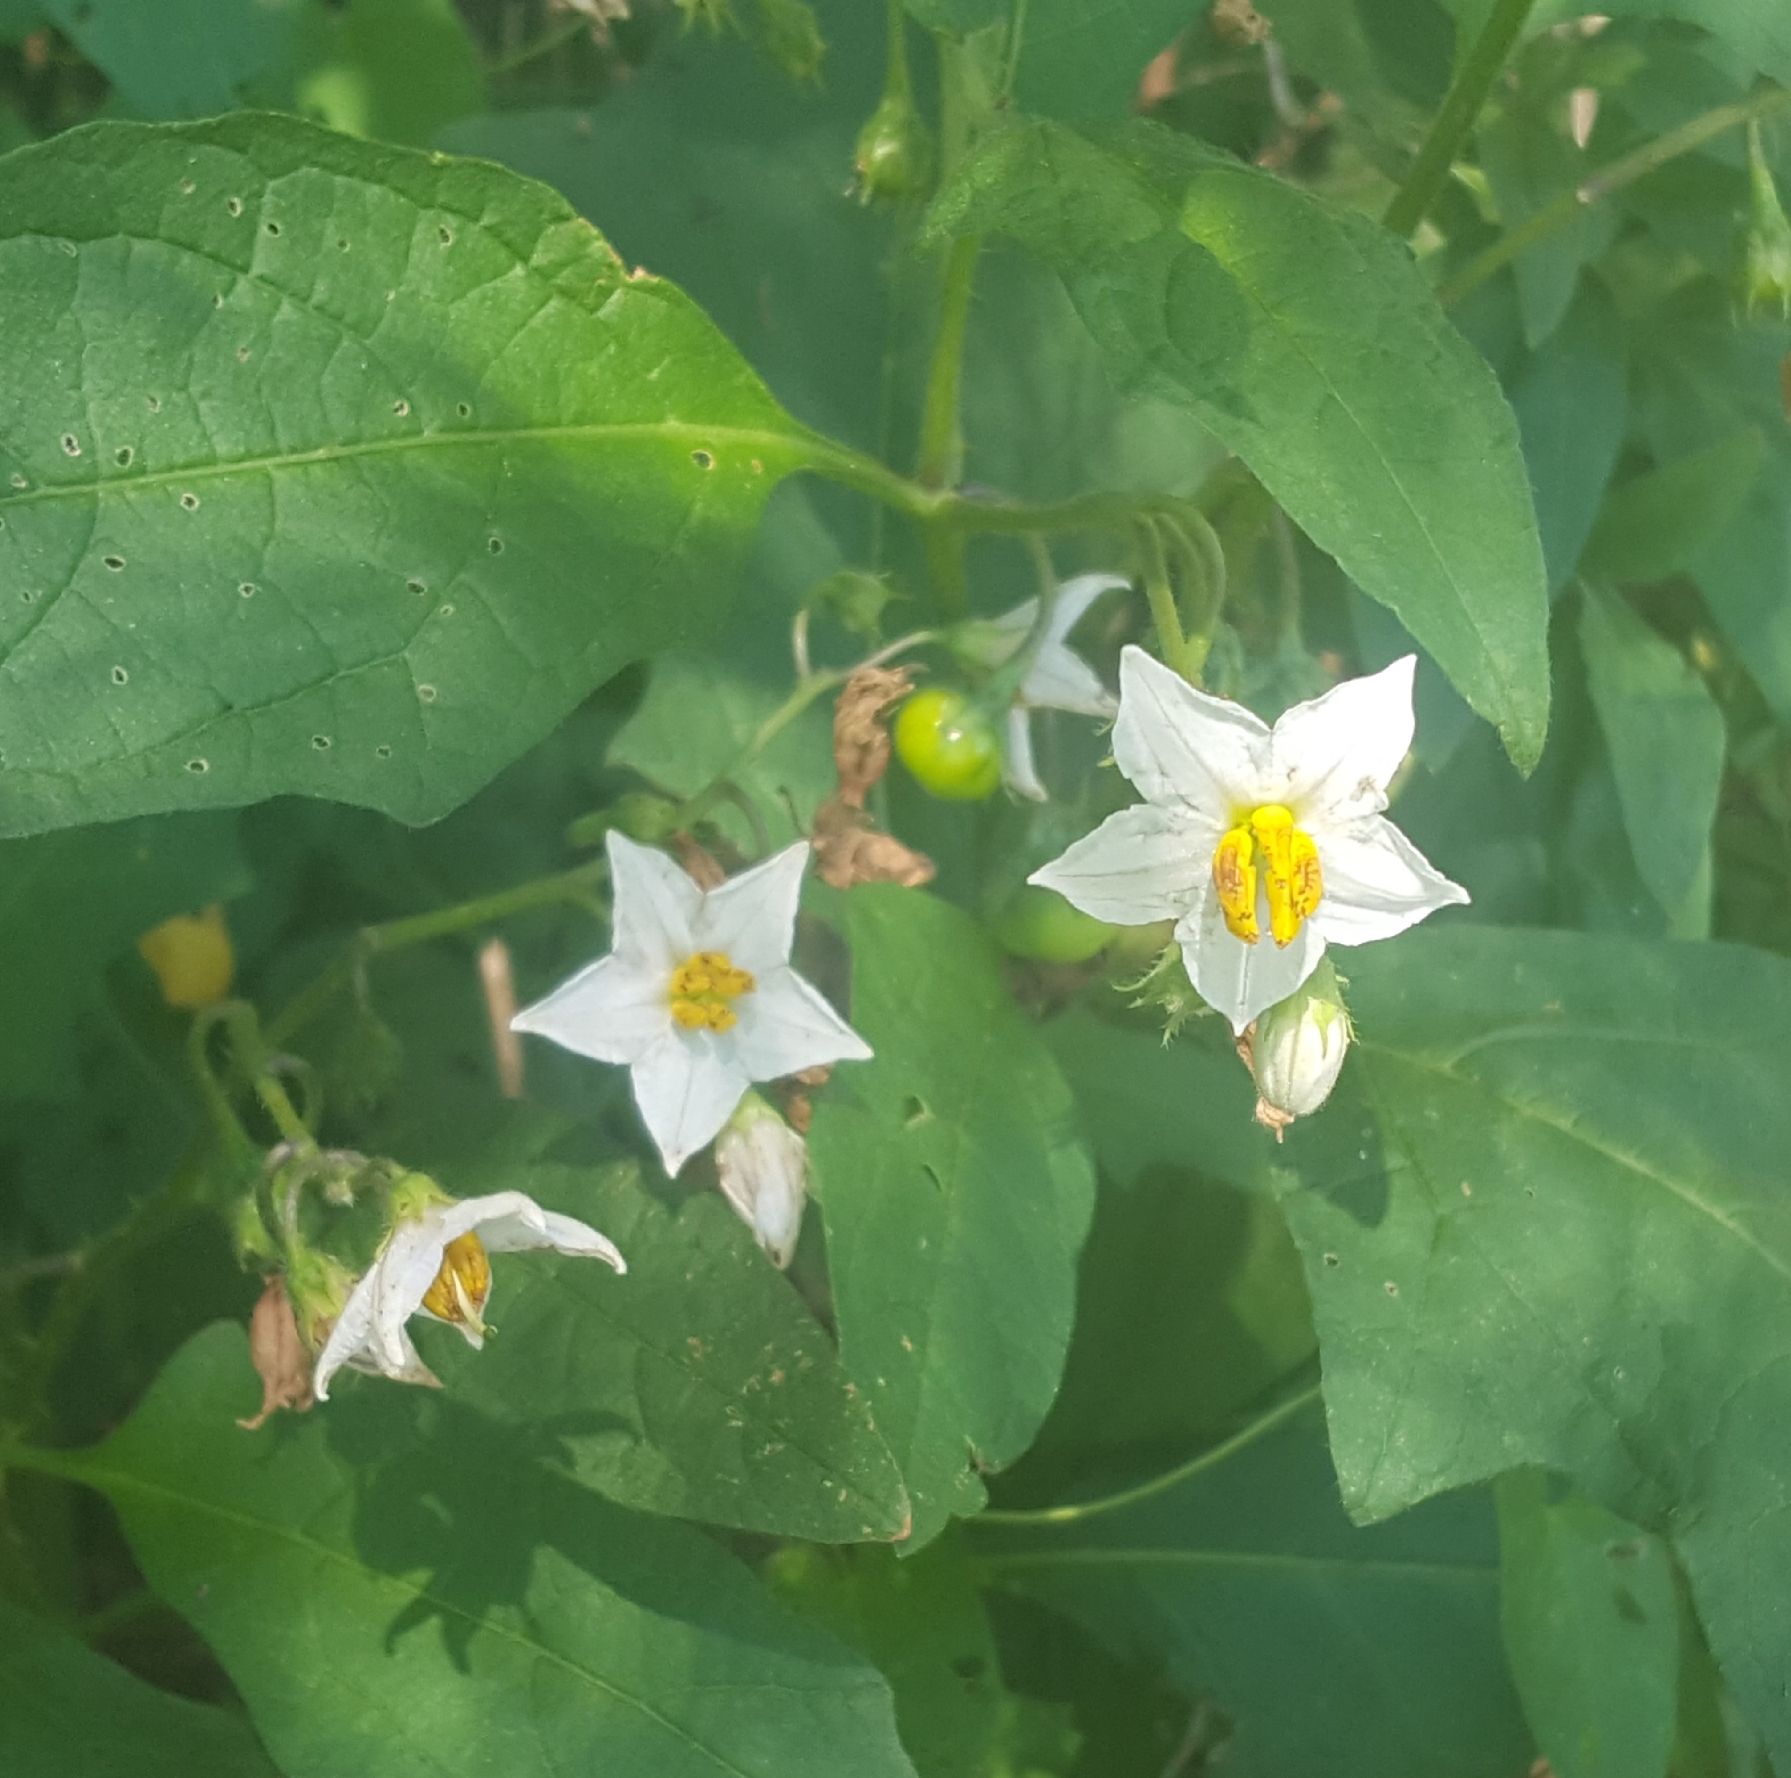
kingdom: Plantae
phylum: Tracheophyta
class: Magnoliopsida
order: Solanales
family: Solanaceae
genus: Solanum
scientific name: Solanum carolinense
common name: Horse-nettle
